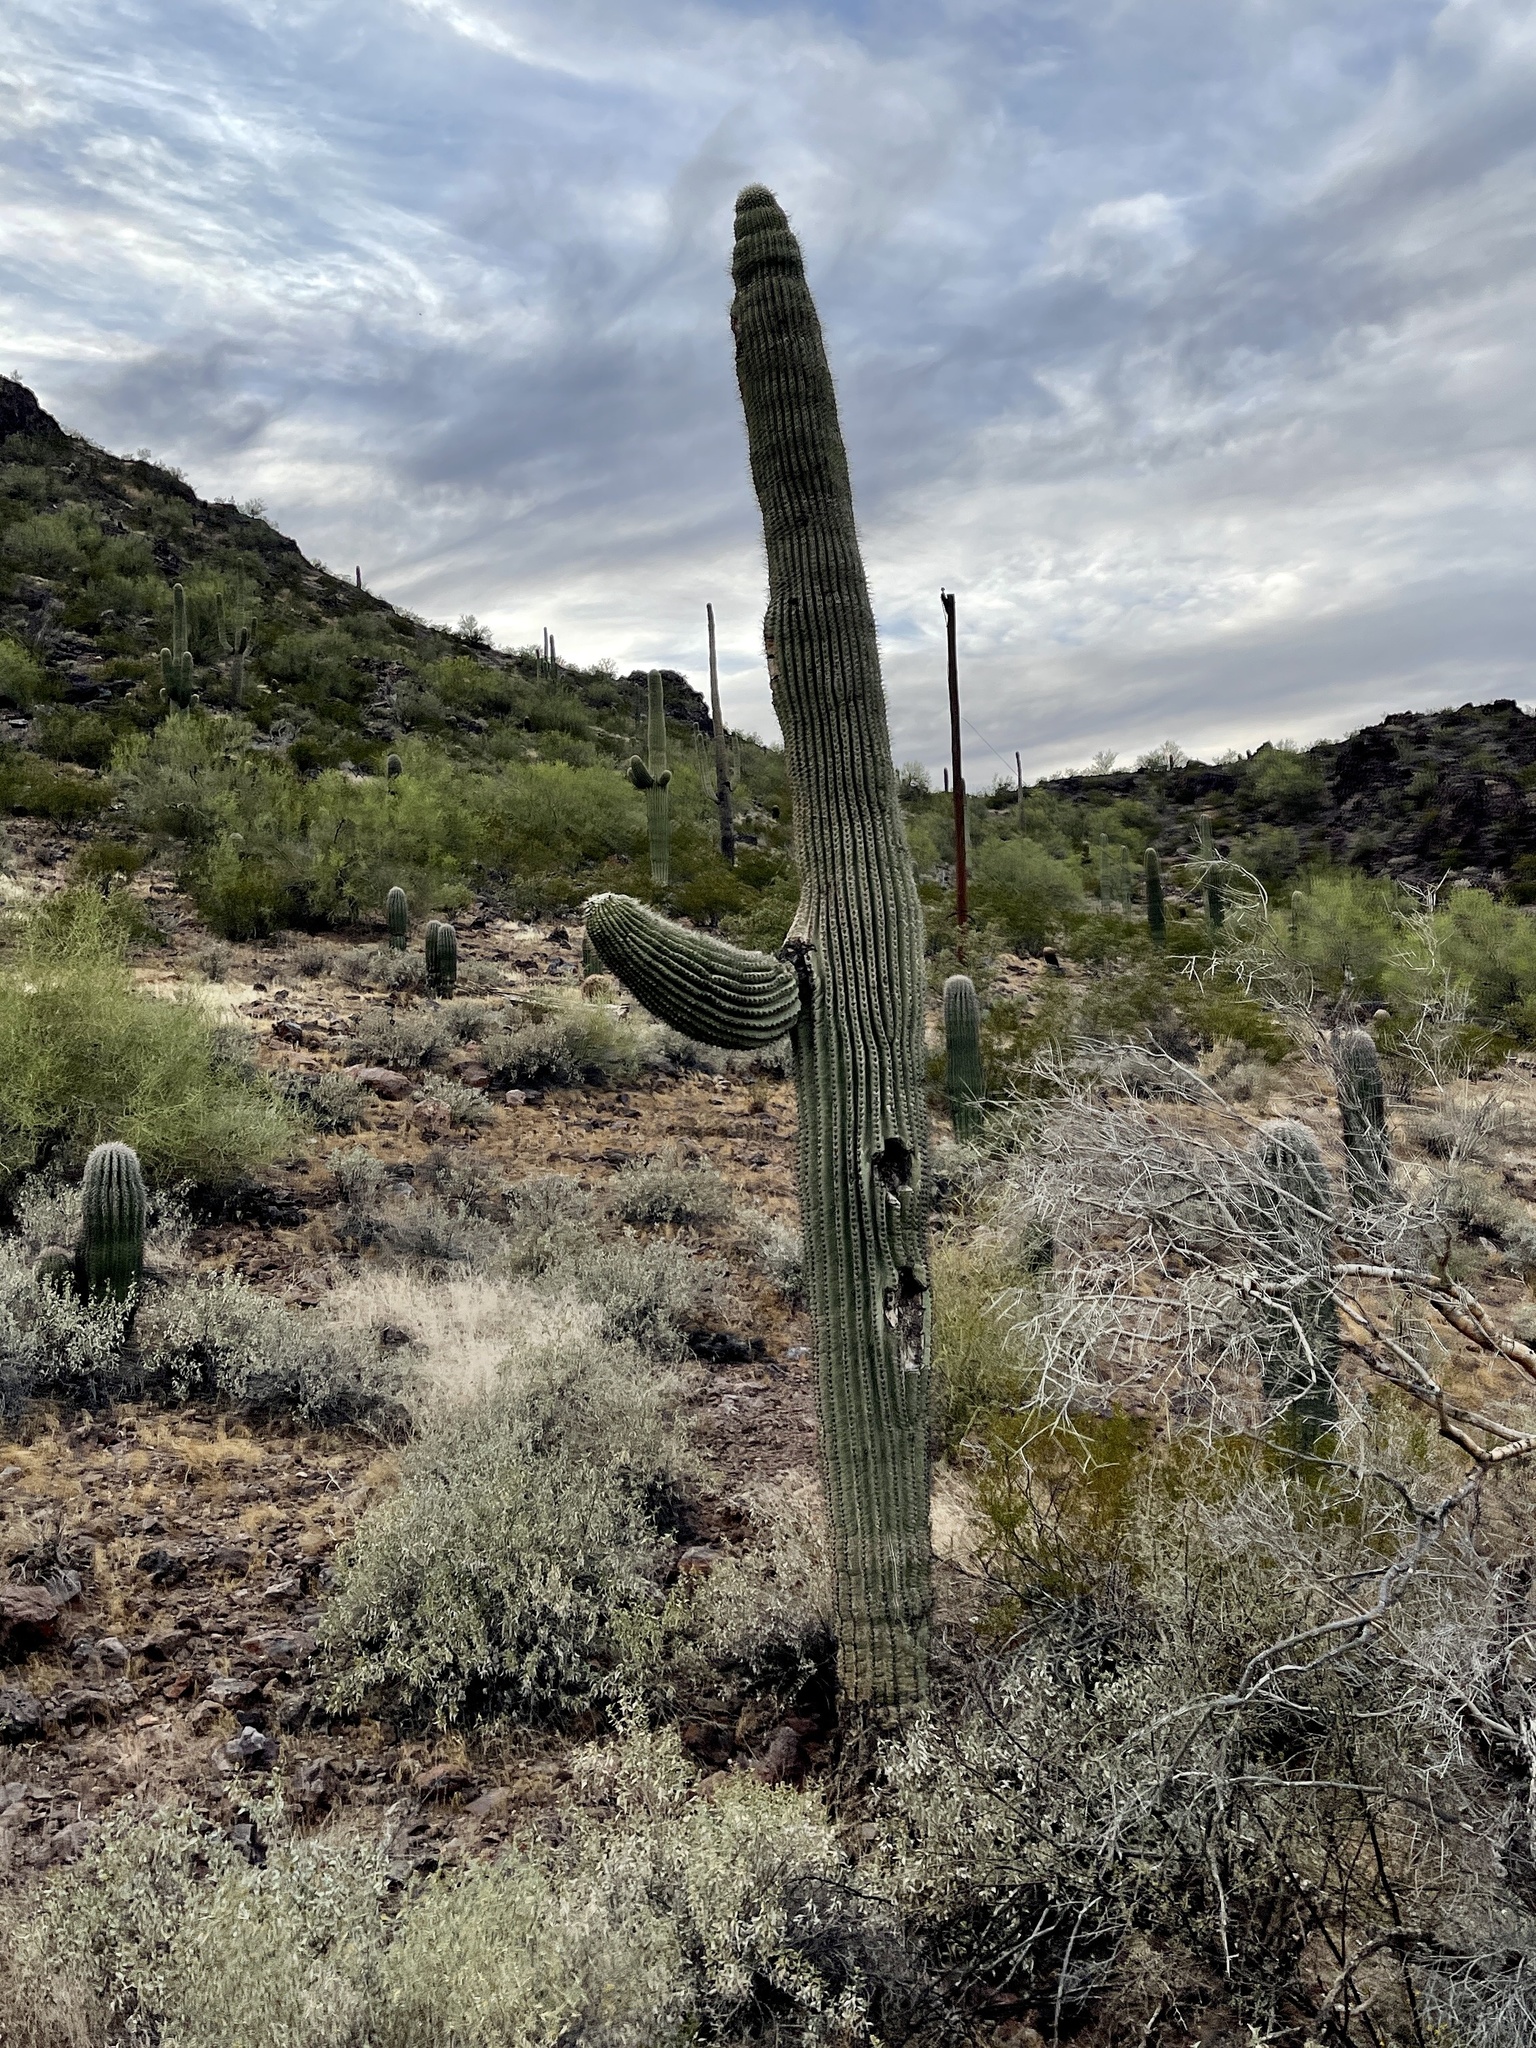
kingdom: Plantae
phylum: Tracheophyta
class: Magnoliopsida
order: Caryophyllales
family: Cactaceae
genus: Carnegiea
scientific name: Carnegiea gigantea
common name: Saguaro
